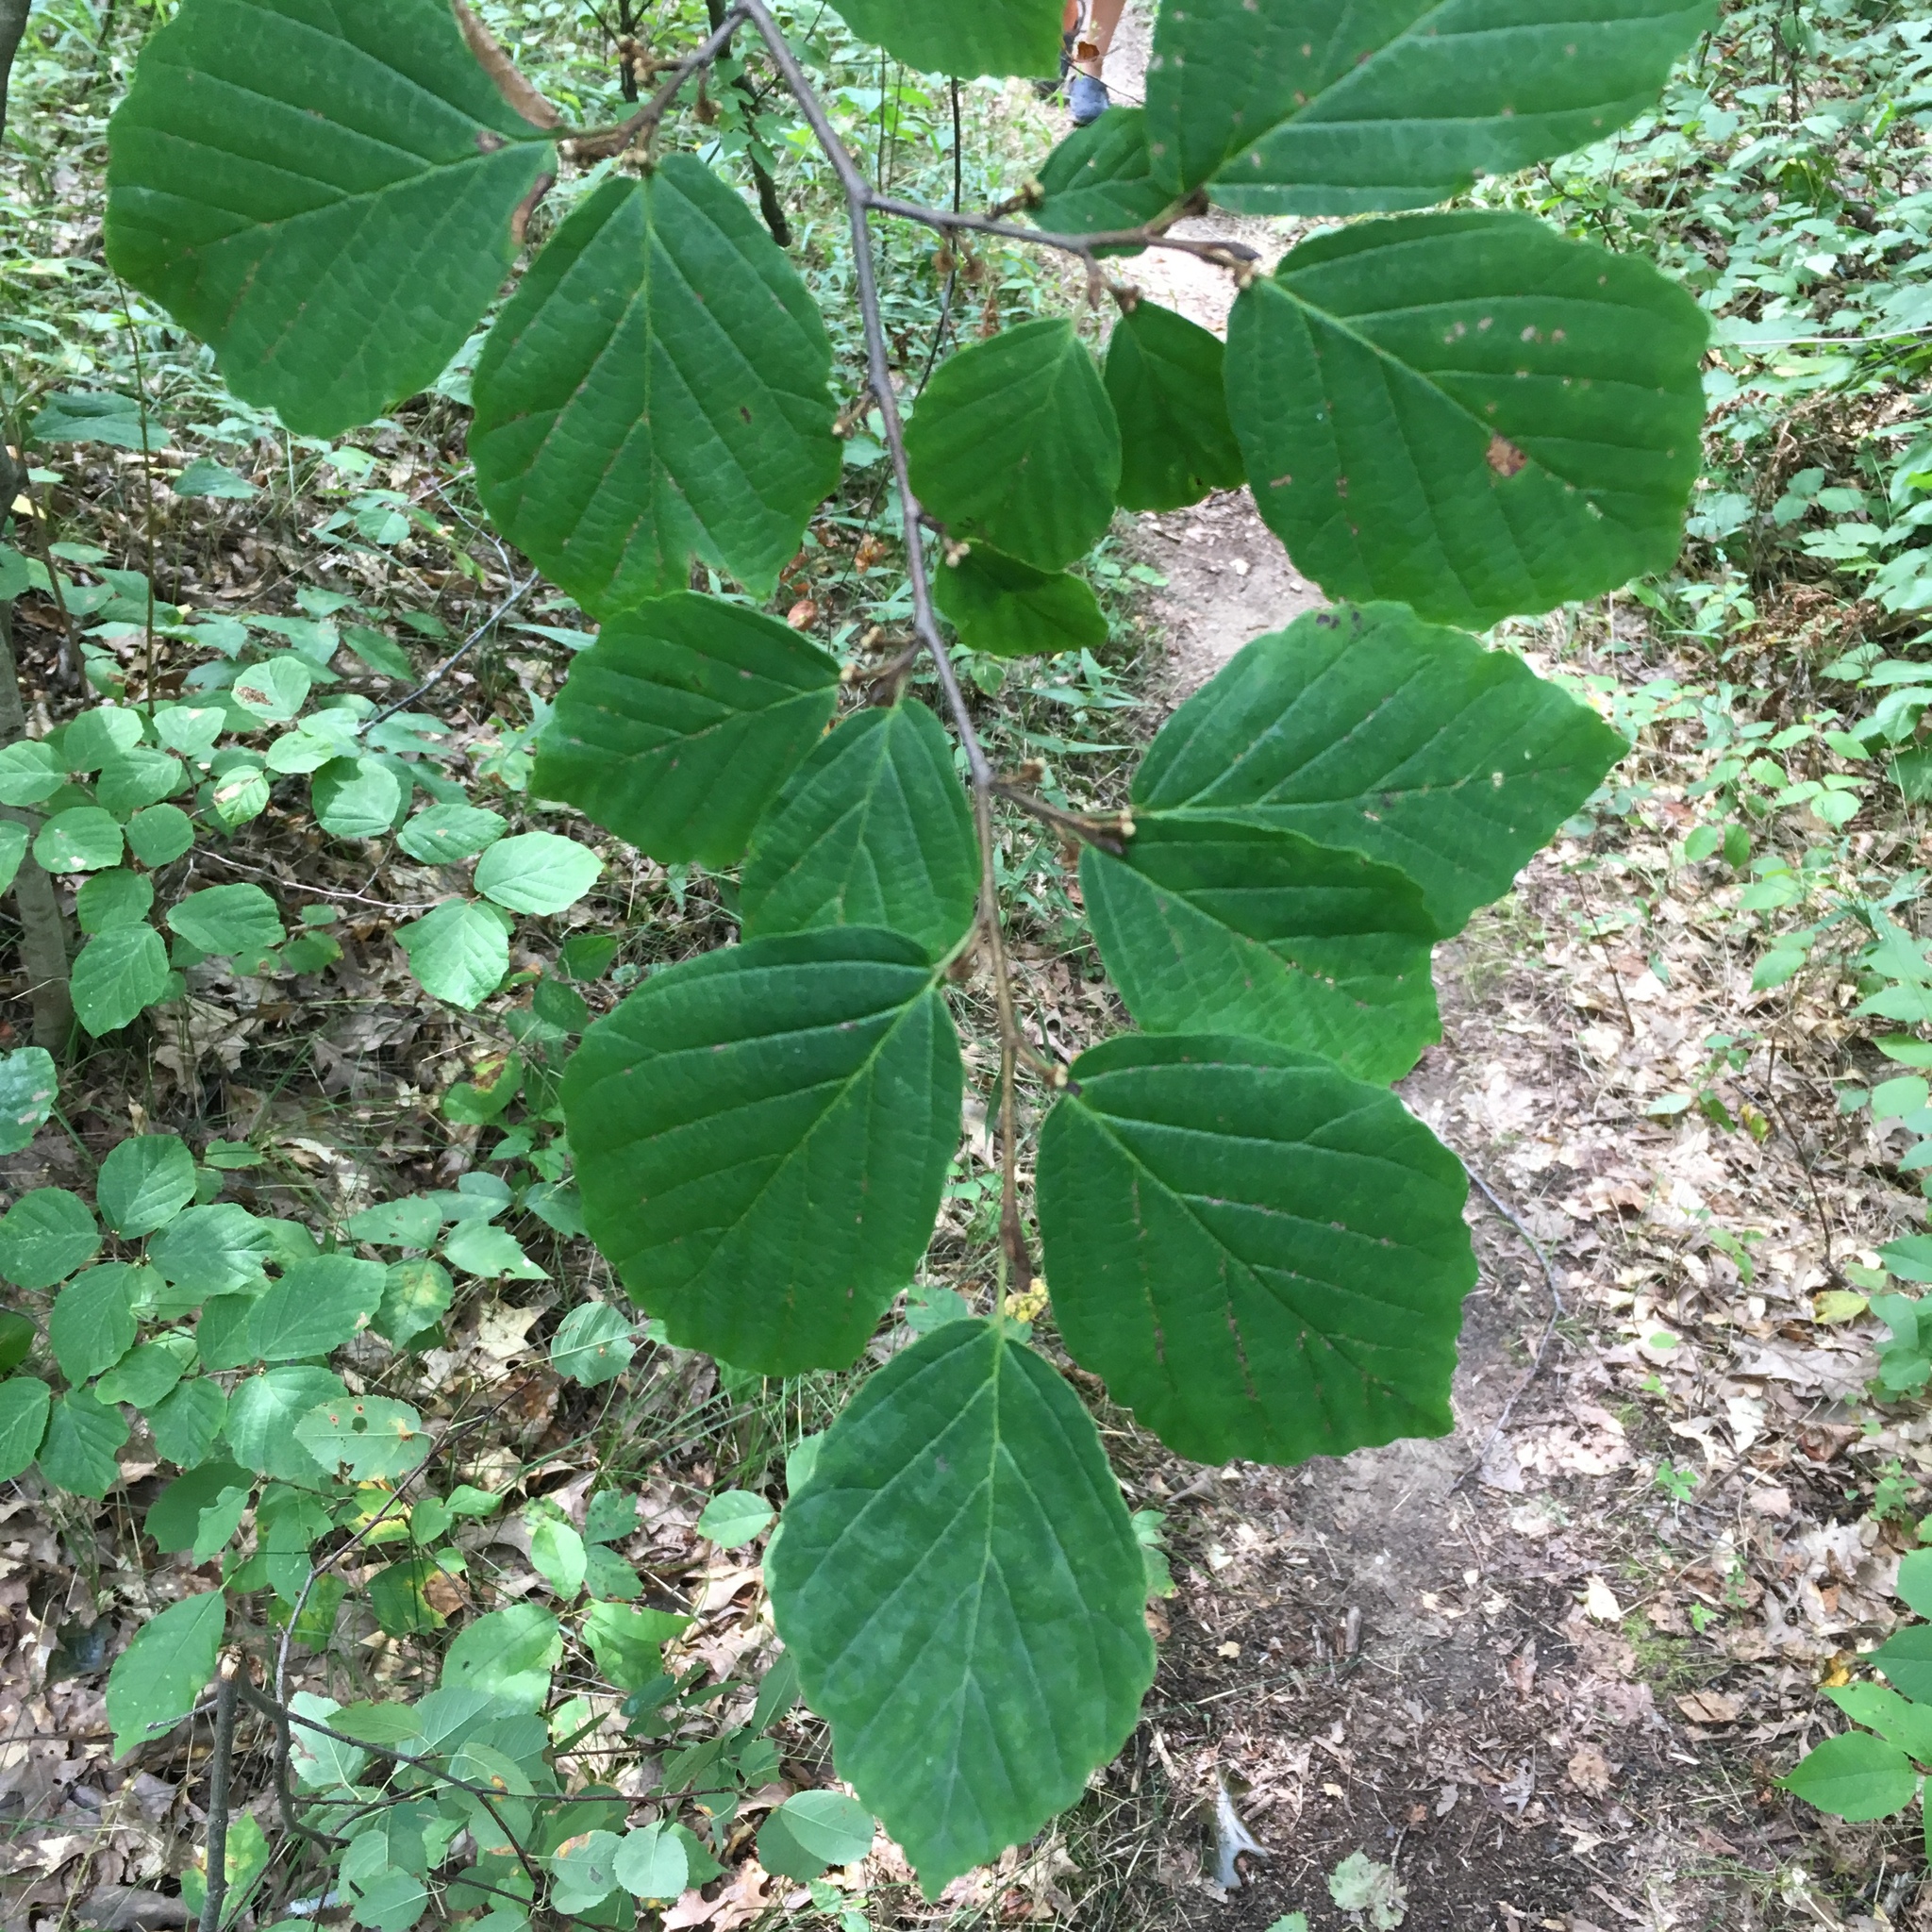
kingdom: Plantae
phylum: Tracheophyta
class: Magnoliopsida
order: Saxifragales
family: Hamamelidaceae
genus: Hamamelis
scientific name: Hamamelis virginiana
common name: Witch-hazel
